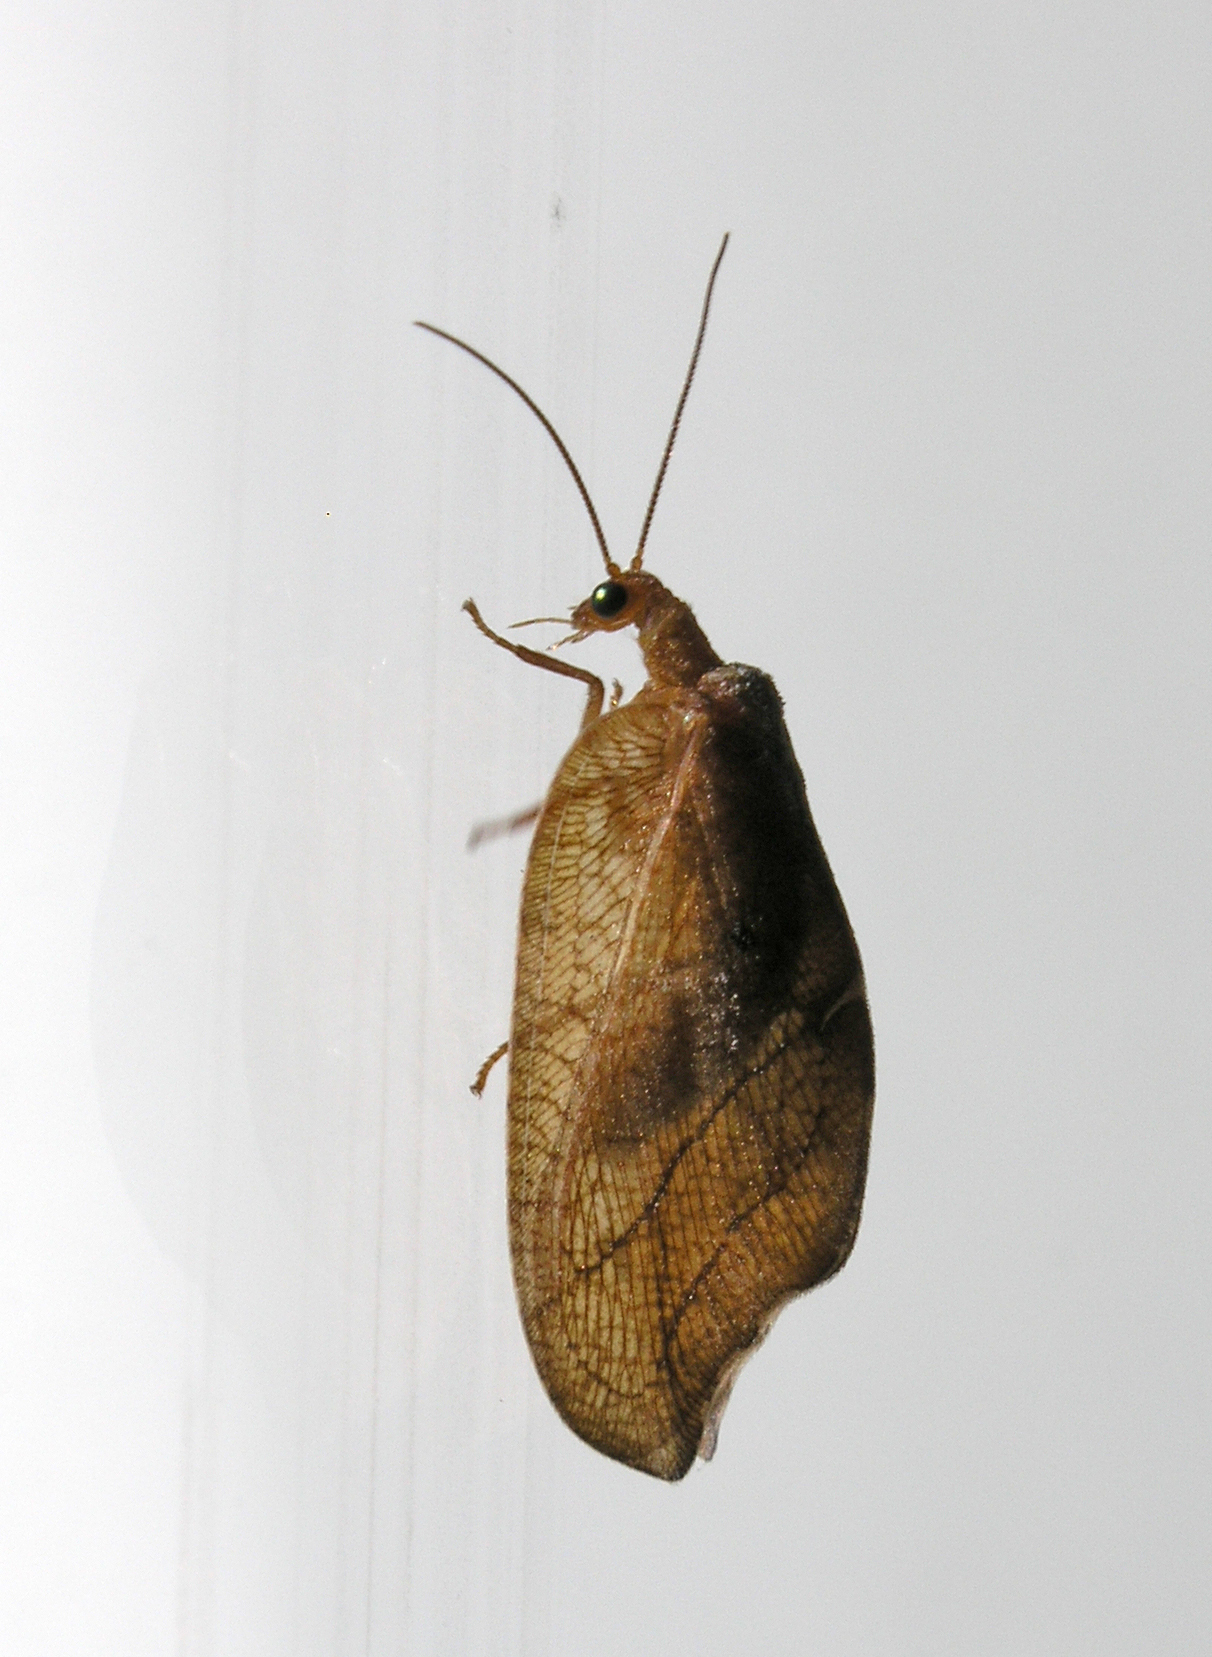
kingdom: Animalia
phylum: Arthropoda
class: Insecta
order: Neuroptera
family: Hemerobiidae
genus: Drepanepteryx
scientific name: Drepanepteryx phalaenoides
